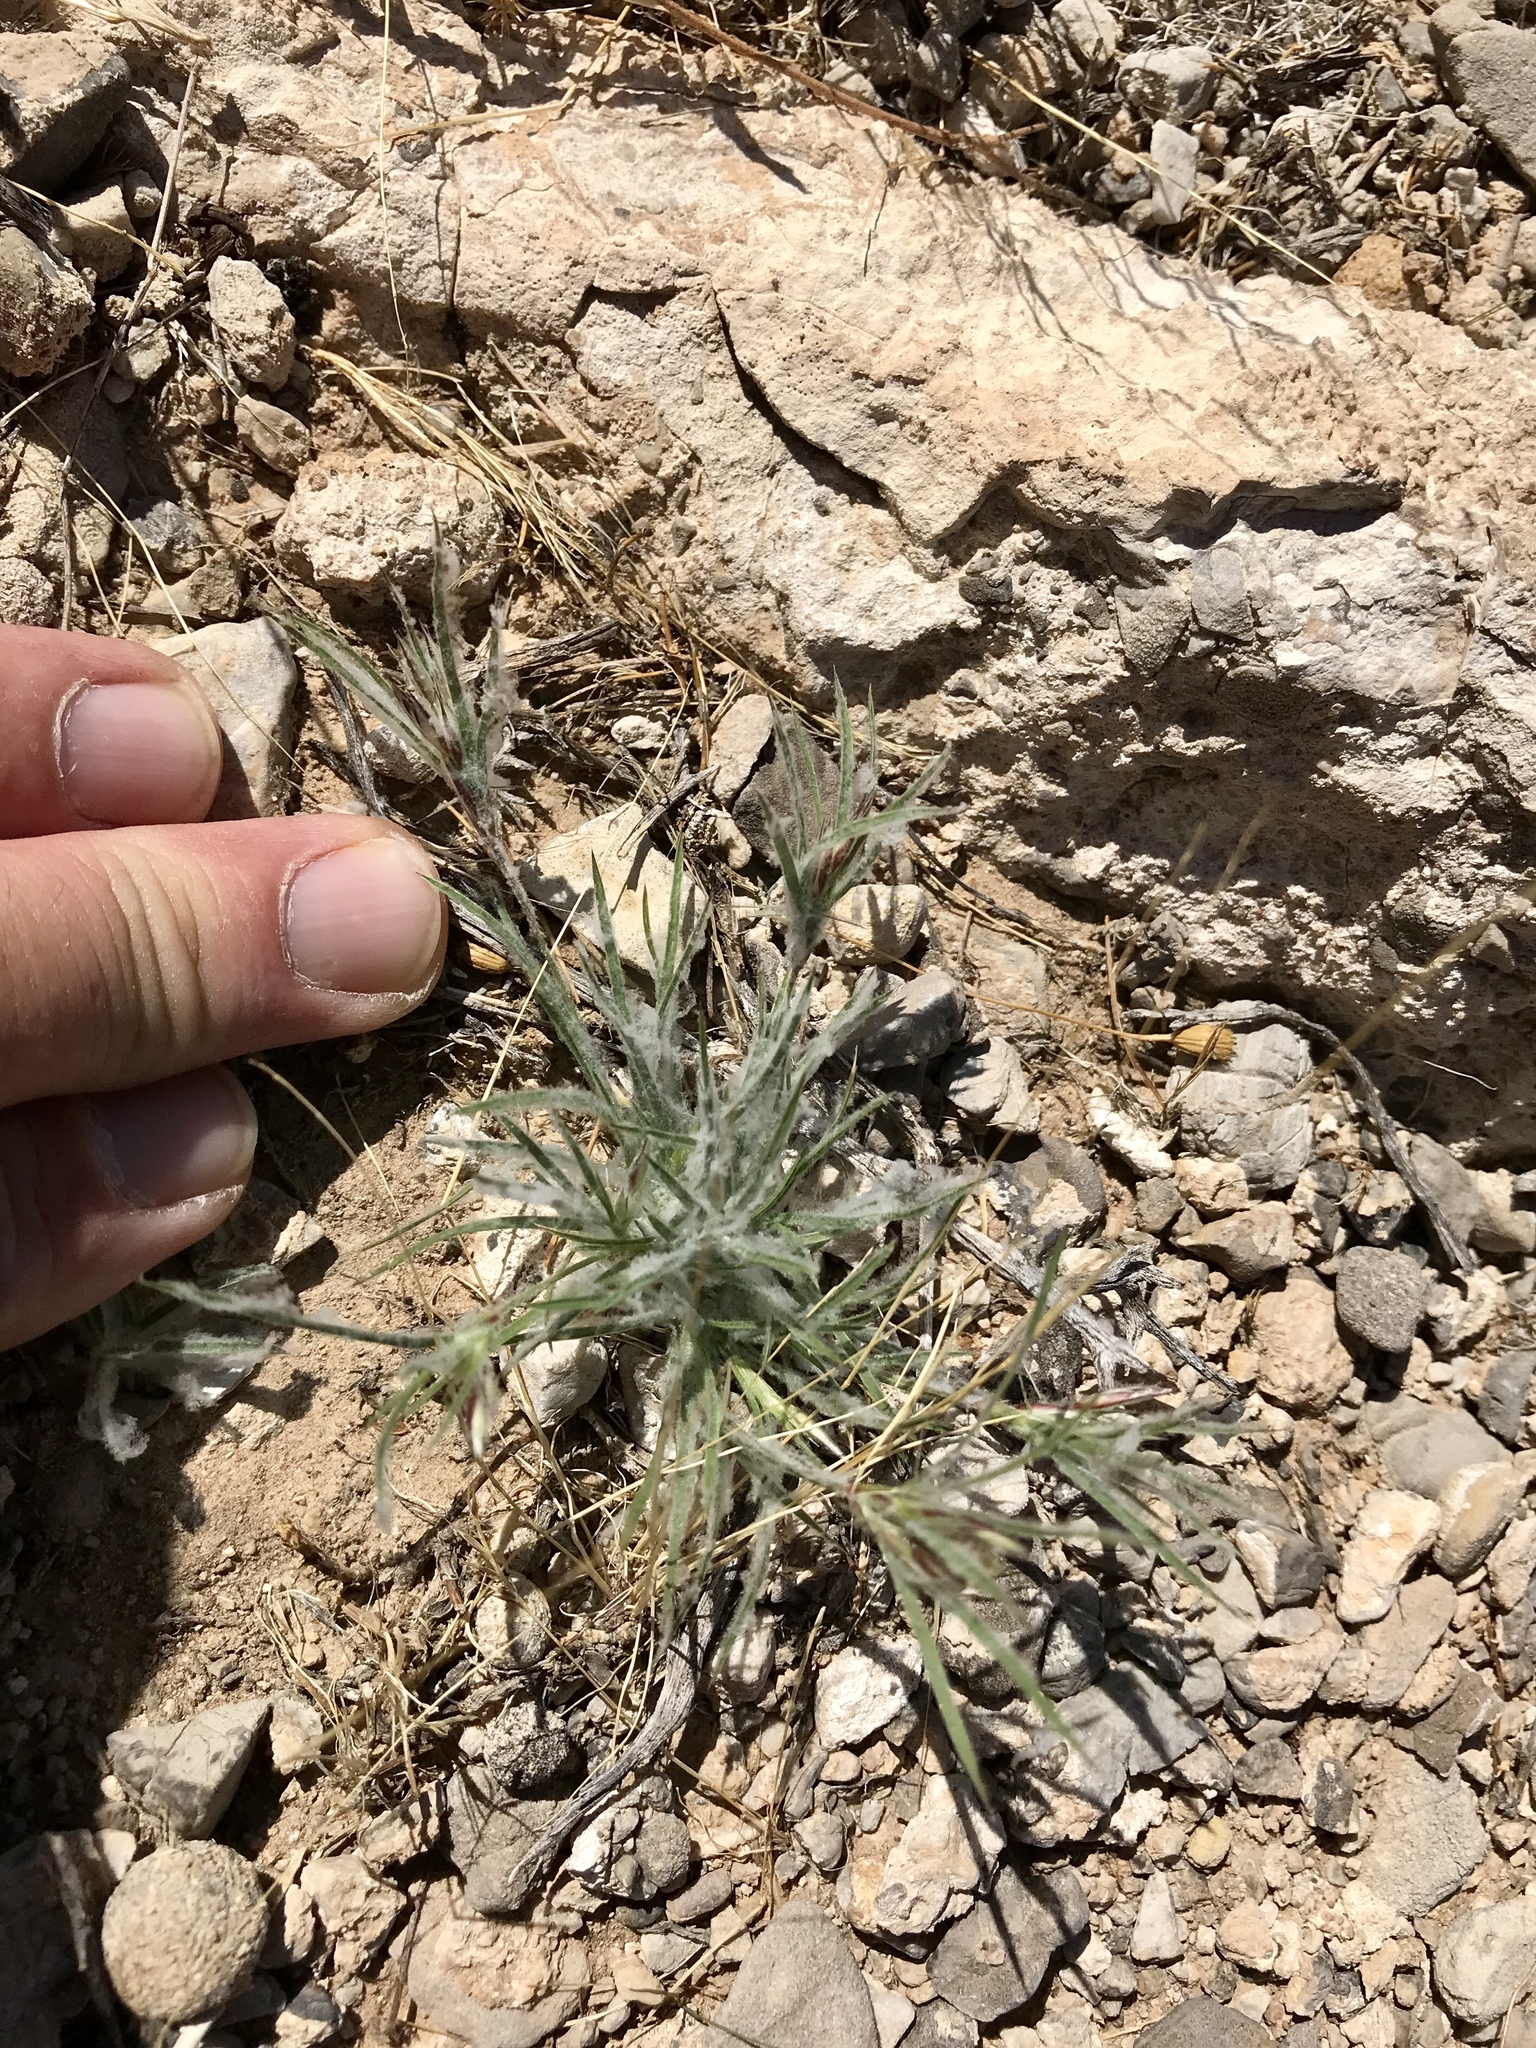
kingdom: Plantae
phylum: Tracheophyta
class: Liliopsida
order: Poales
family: Poaceae
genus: Dasyochloa
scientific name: Dasyochloa pulchella
